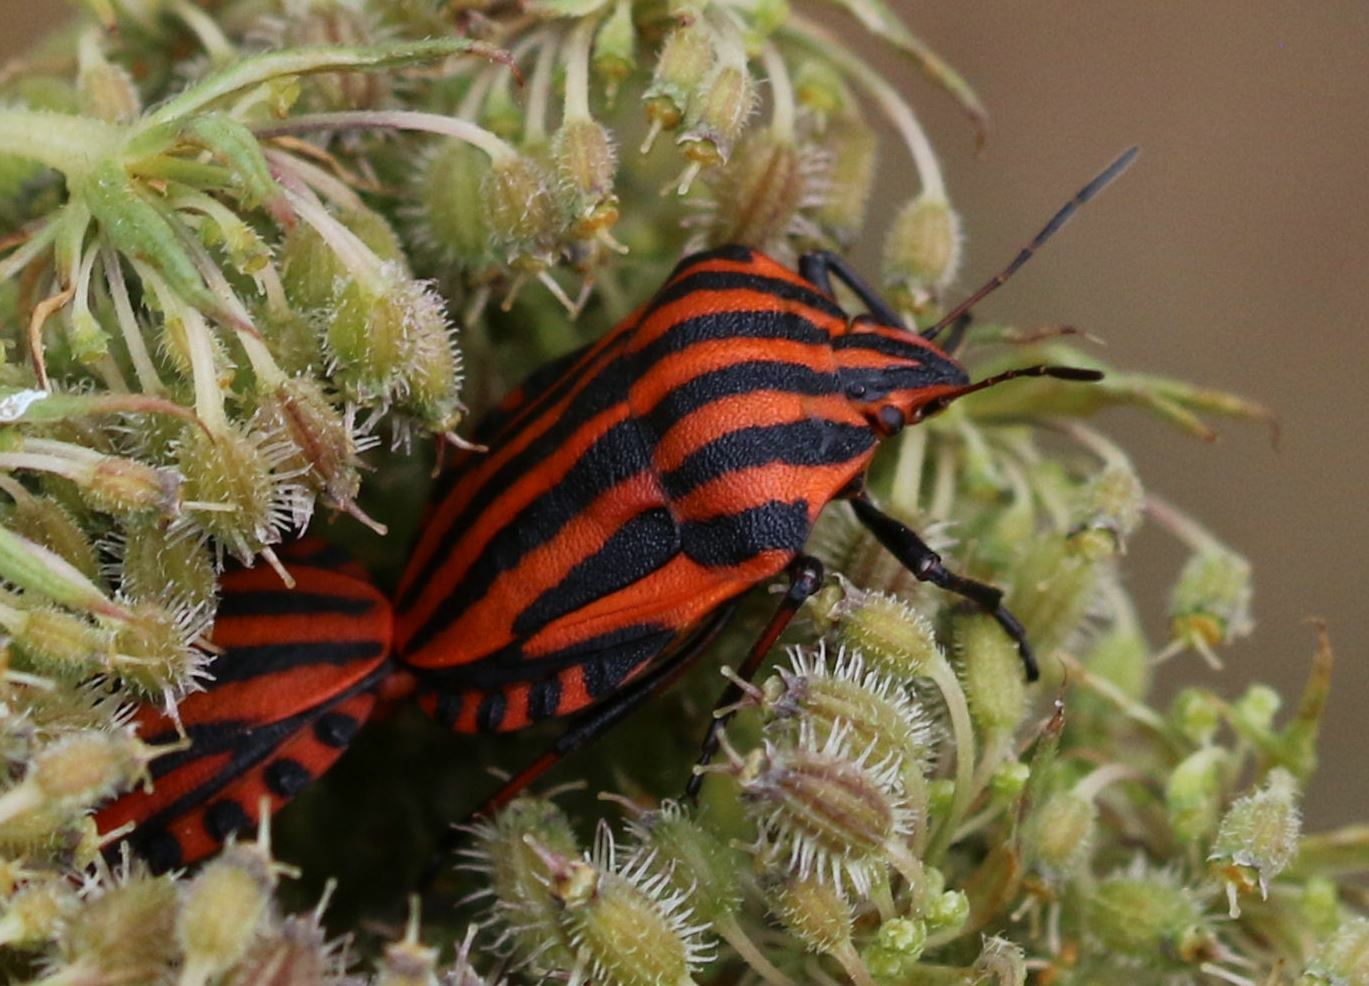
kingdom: Animalia
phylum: Arthropoda
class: Insecta
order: Hemiptera
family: Pentatomidae
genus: Graphosoma
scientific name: Graphosoma italicum
